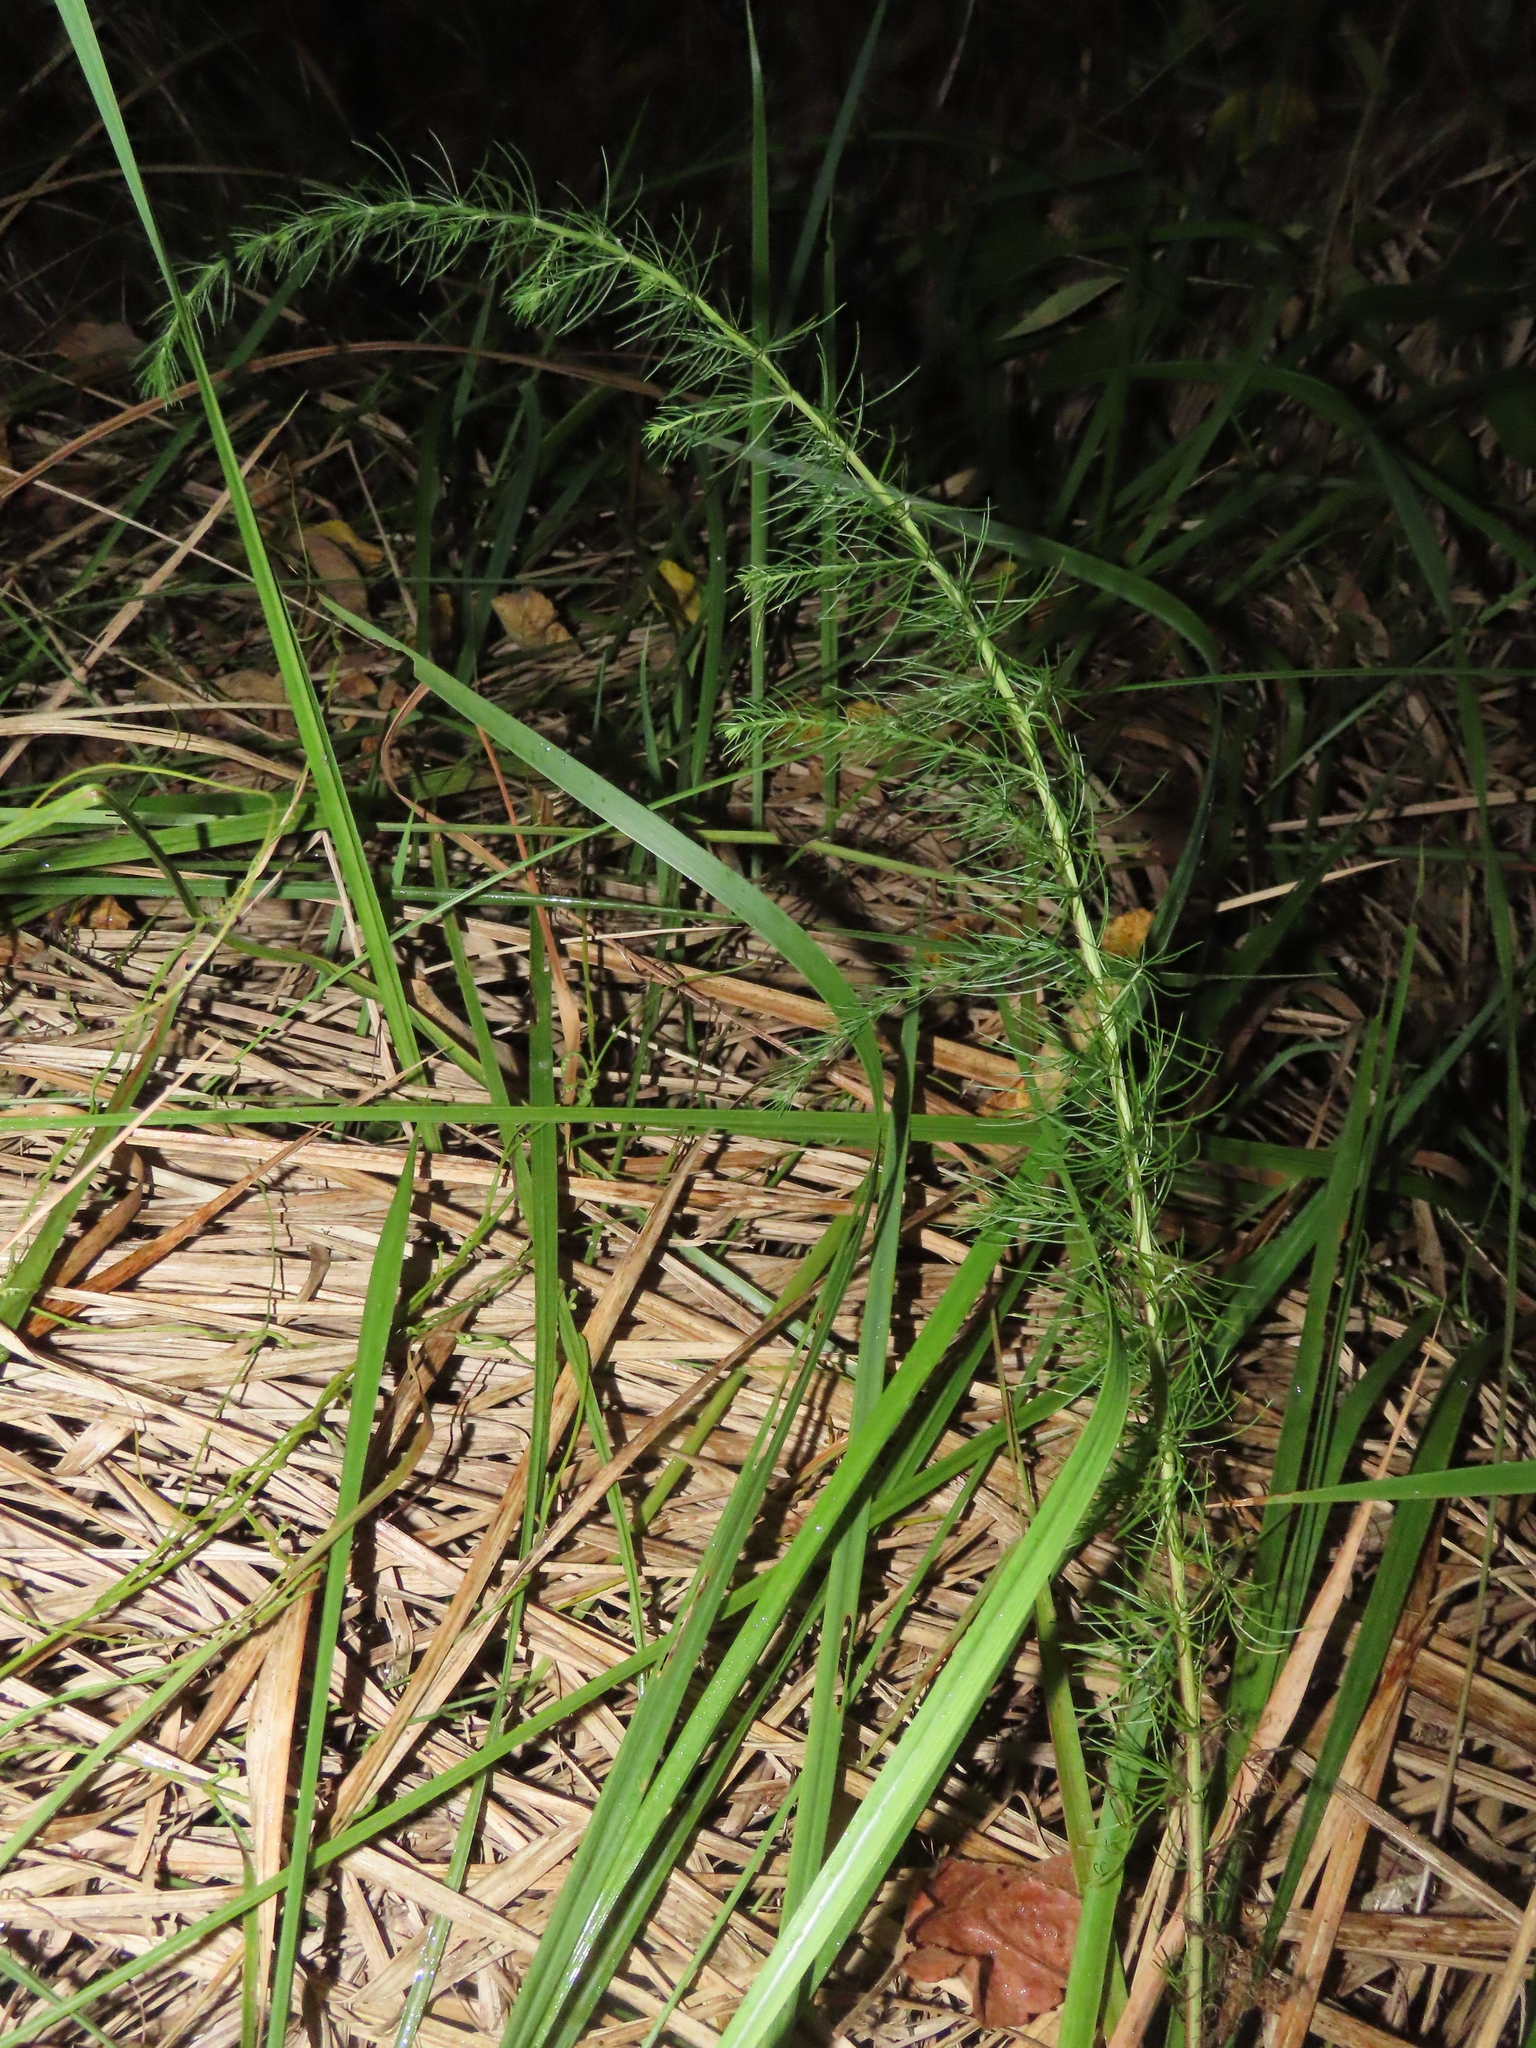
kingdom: Plantae
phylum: Tracheophyta
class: Magnoliopsida
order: Asterales
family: Asteraceae
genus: Artemisia
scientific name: Artemisia capillaris
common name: Yin-chen wormwood
